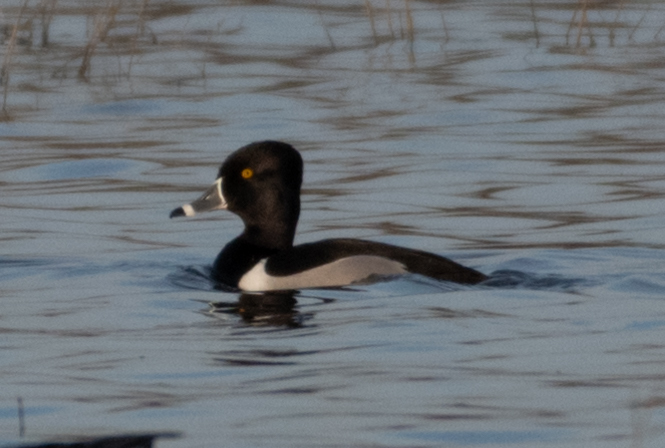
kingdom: Animalia
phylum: Chordata
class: Aves
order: Anseriformes
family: Anatidae
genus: Aythya
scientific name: Aythya collaris
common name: Ring-necked duck
